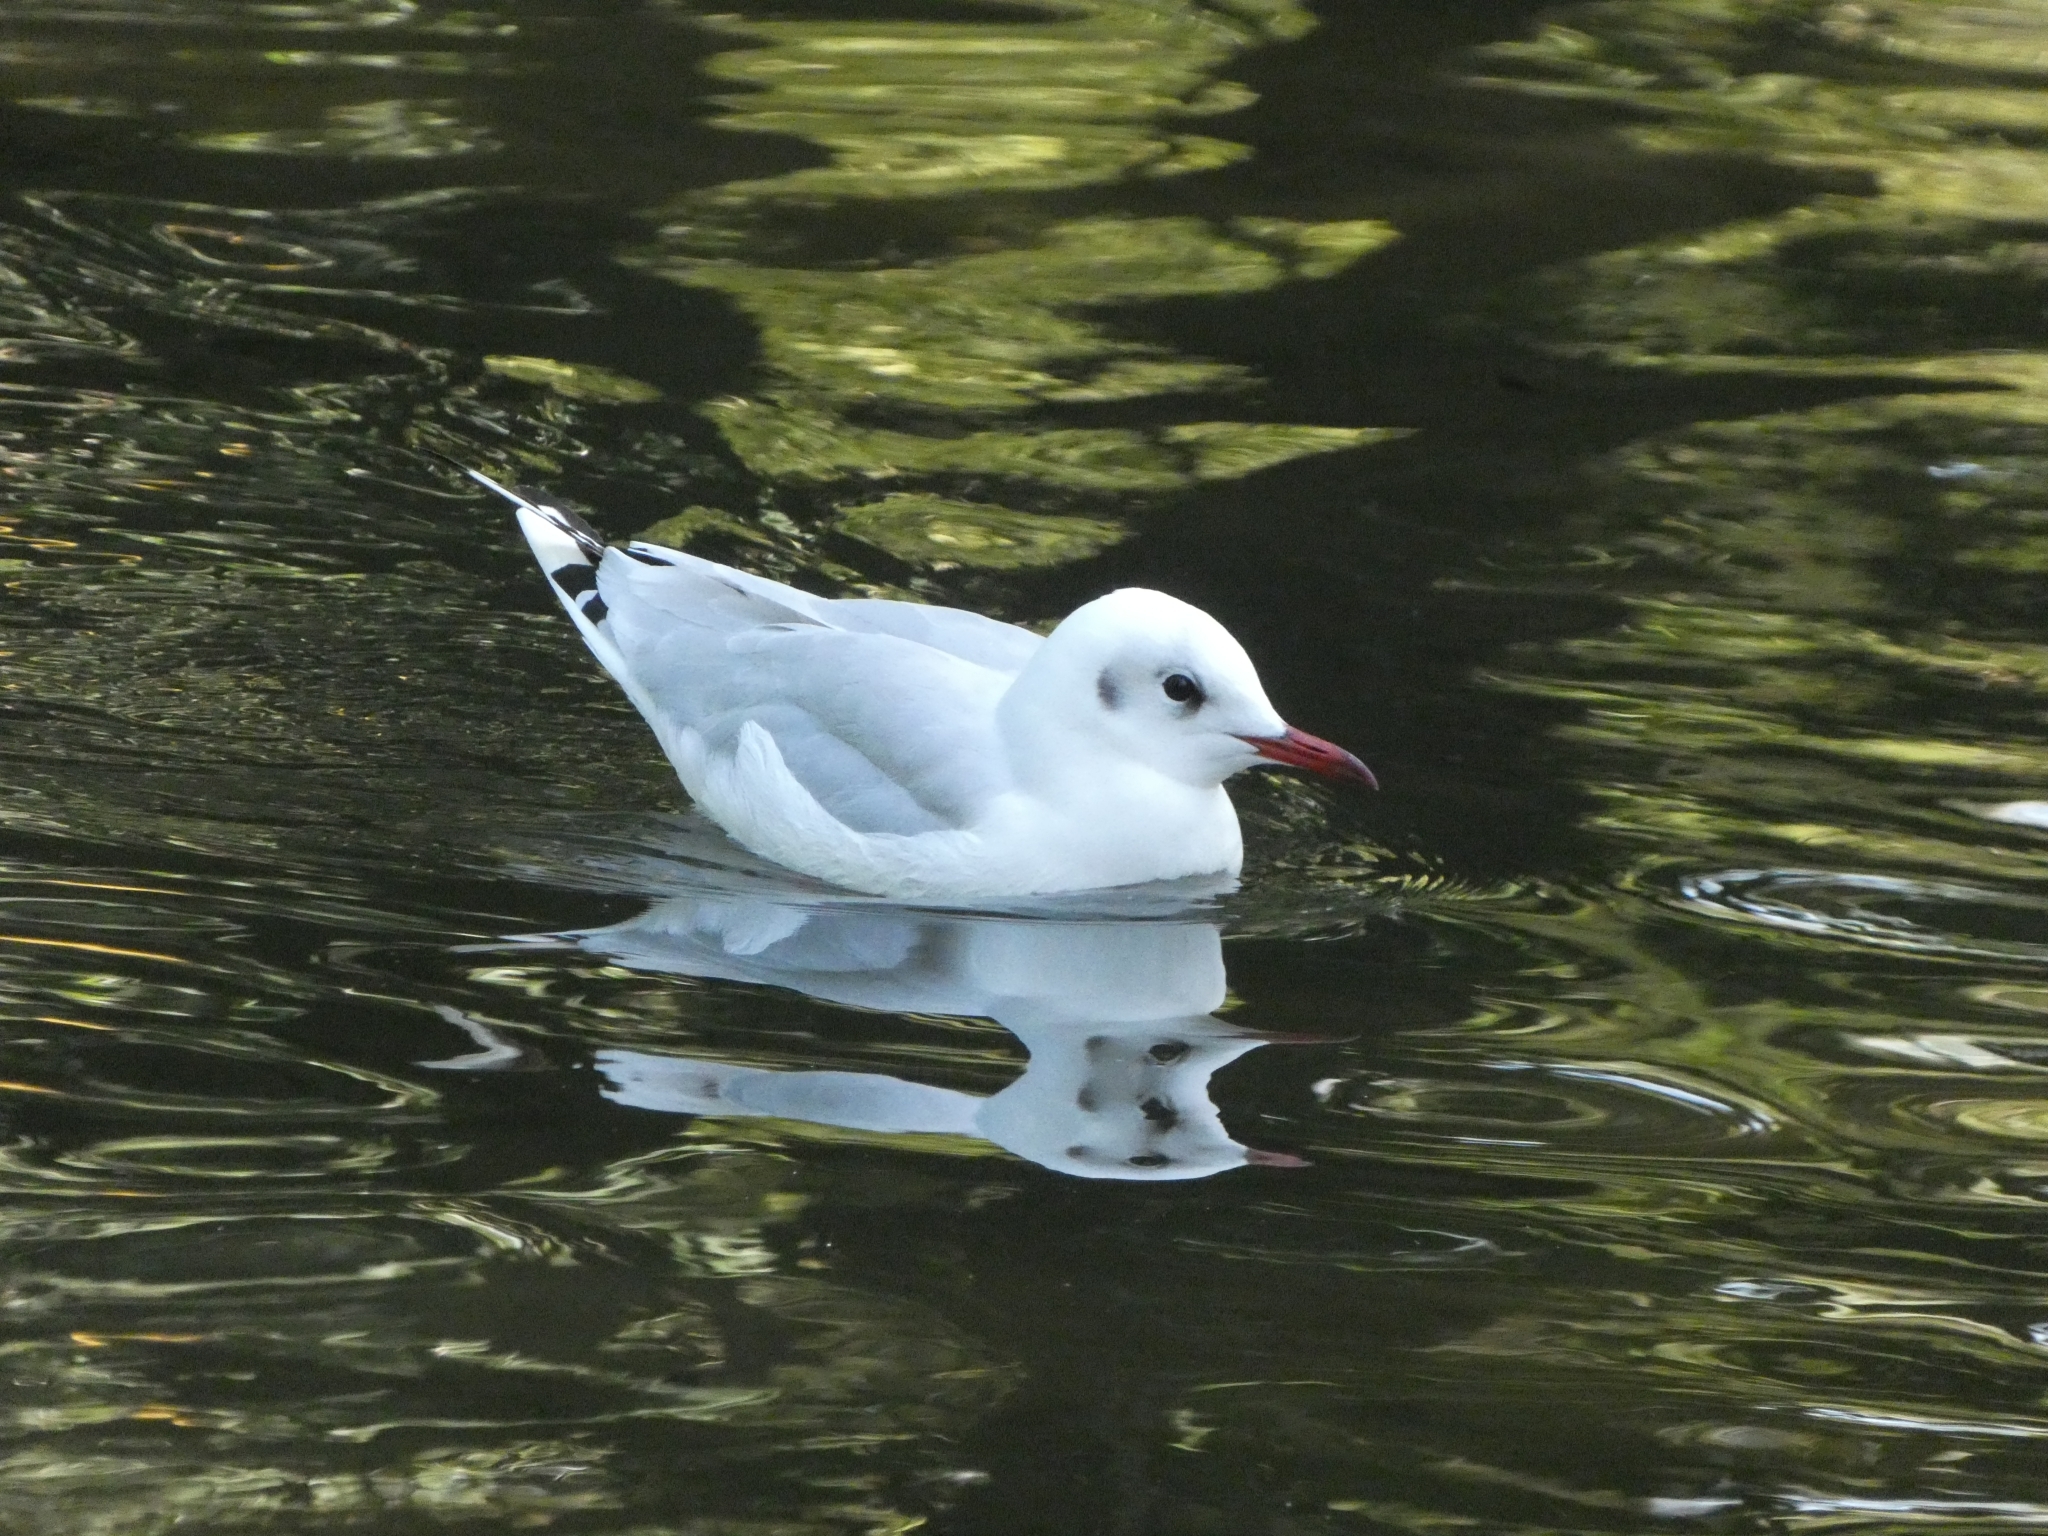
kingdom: Animalia
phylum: Chordata
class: Aves
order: Charadriiformes
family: Laridae
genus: Chroicocephalus
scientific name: Chroicocephalus ridibundus
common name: Black-headed gull
